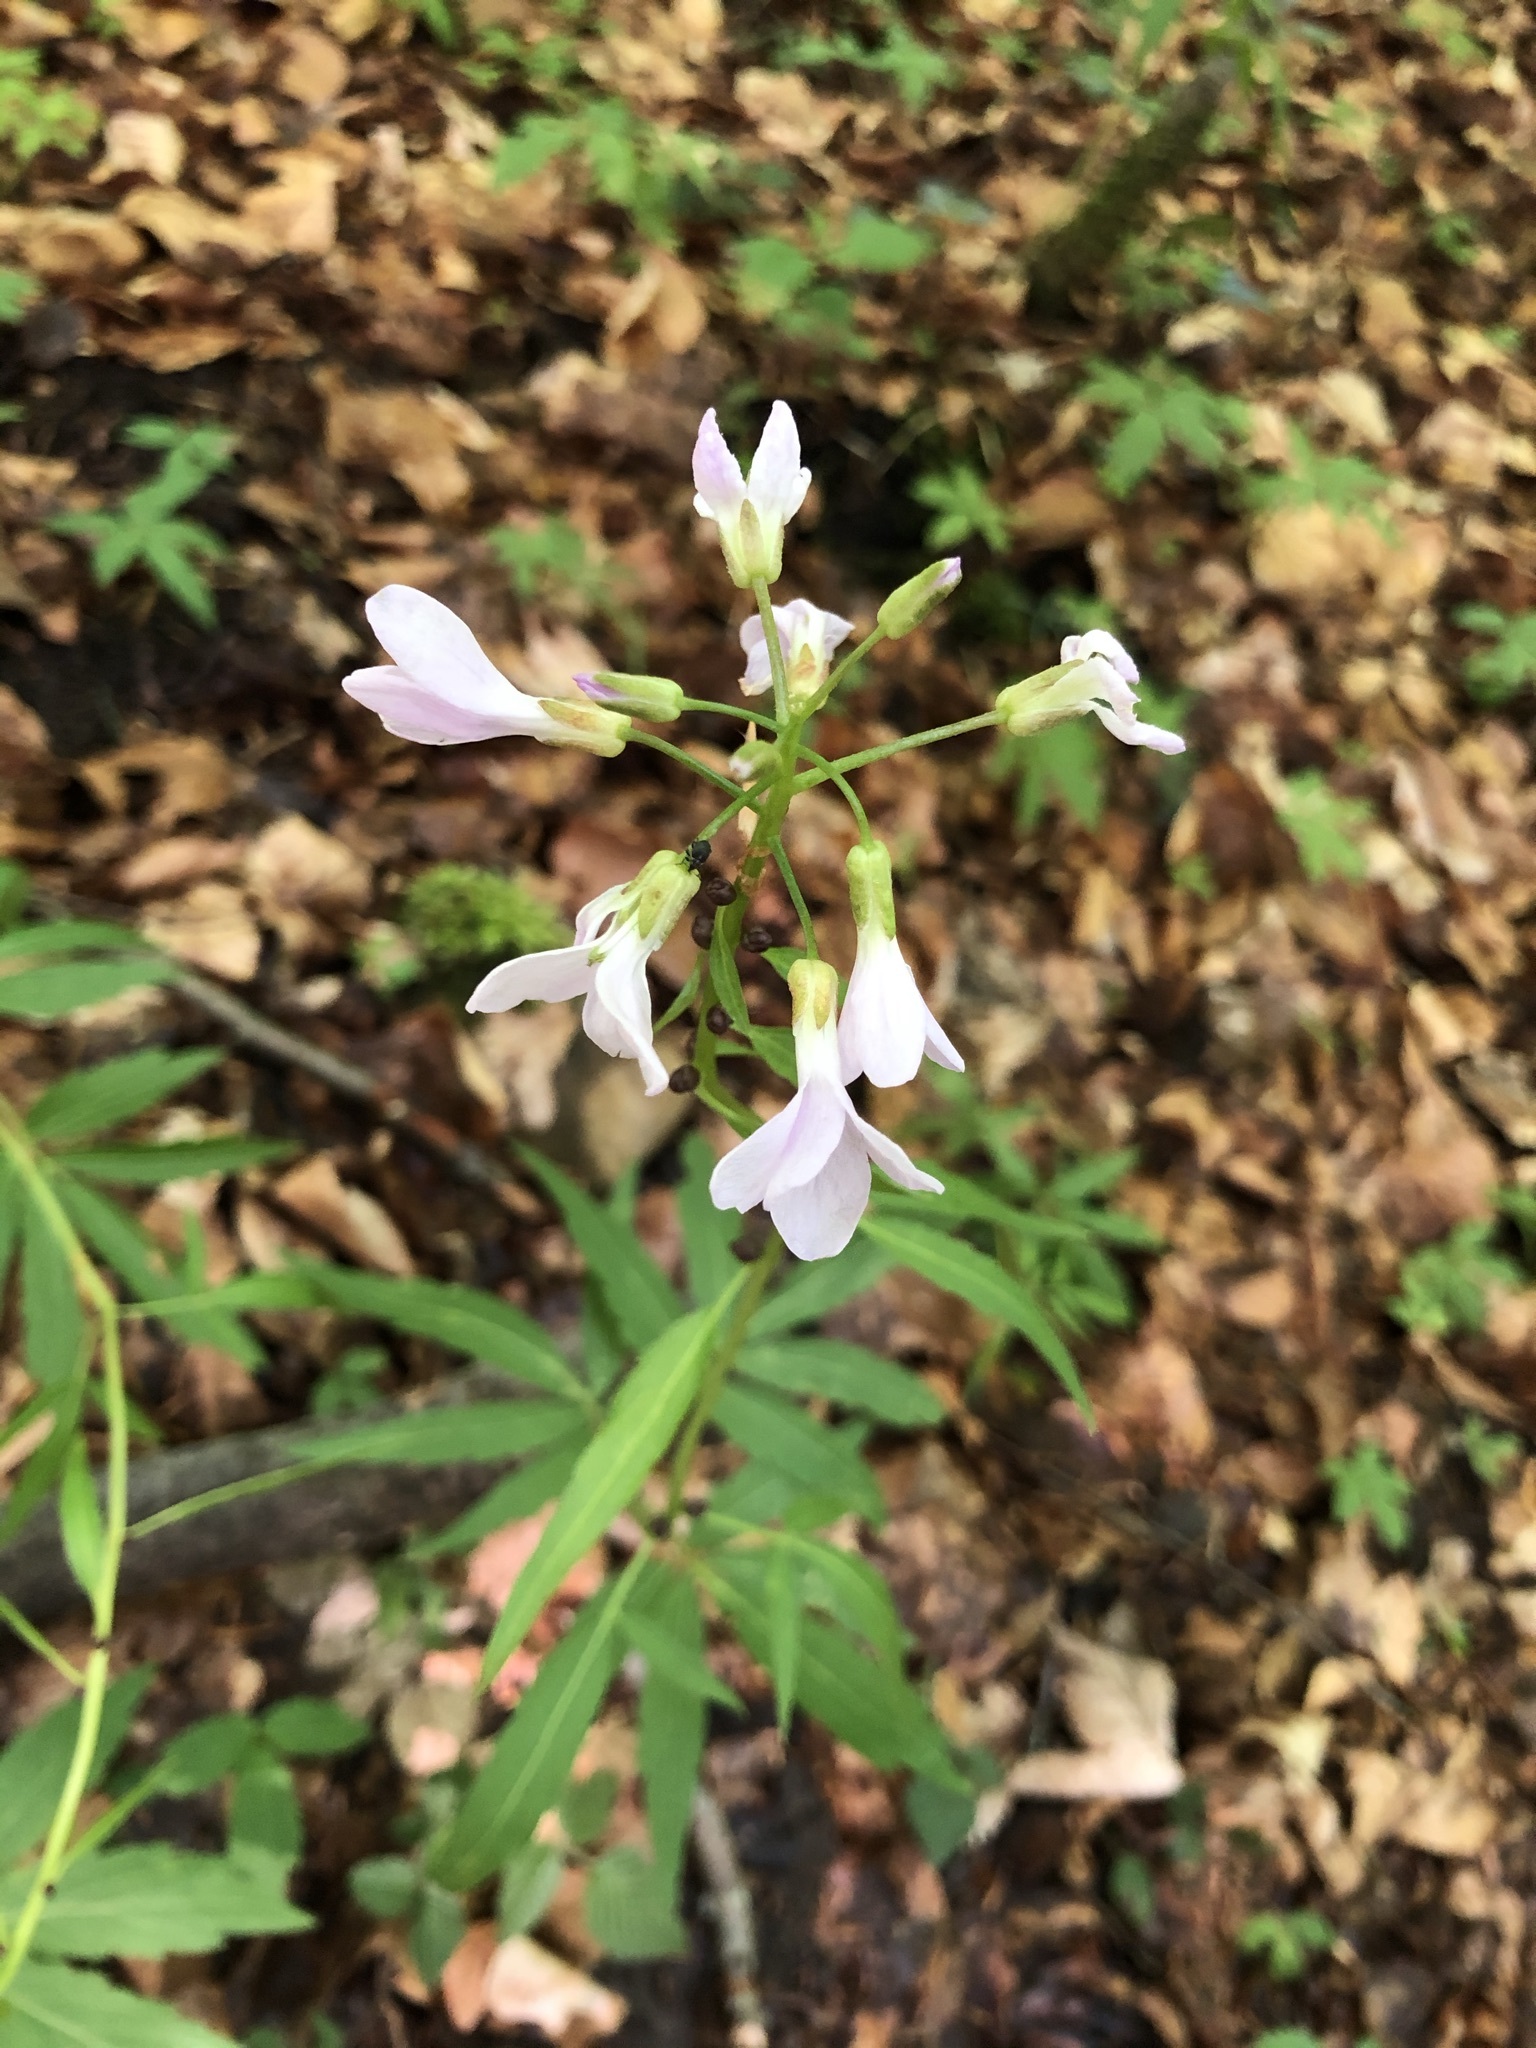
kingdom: Plantae
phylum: Tracheophyta
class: Magnoliopsida
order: Brassicales
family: Brassicaceae
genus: Cardamine
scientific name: Cardamine bulbifera
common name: Coralroot bittercress
